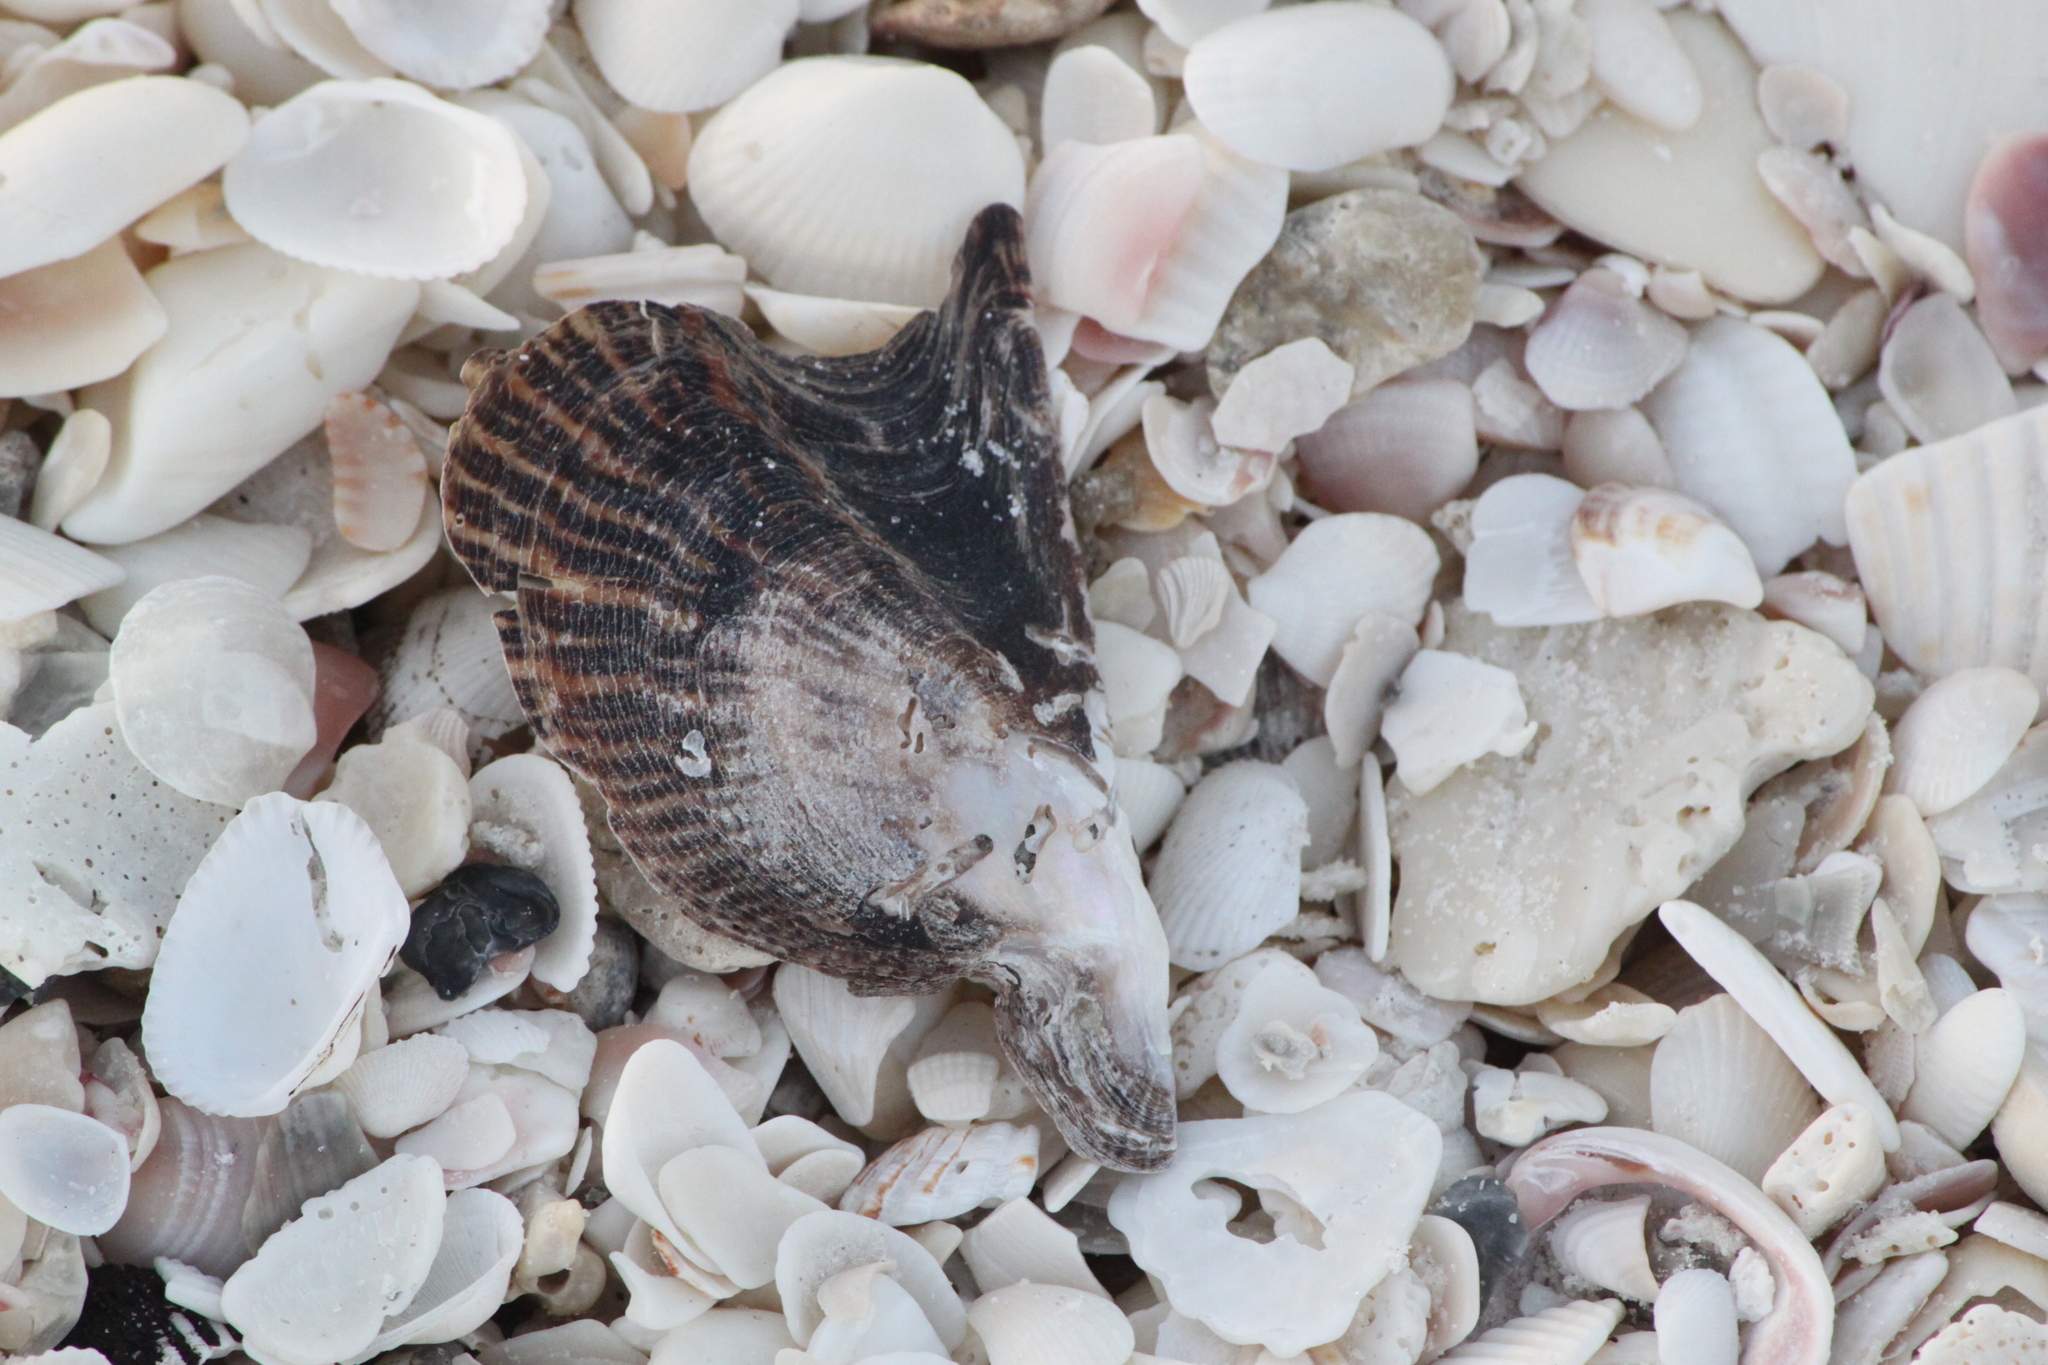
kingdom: Animalia
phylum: Mollusca
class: Bivalvia
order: Pectinida
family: Pectinidae
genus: Argopecten
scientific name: Argopecten gibbus
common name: Atlantic calico scallop
